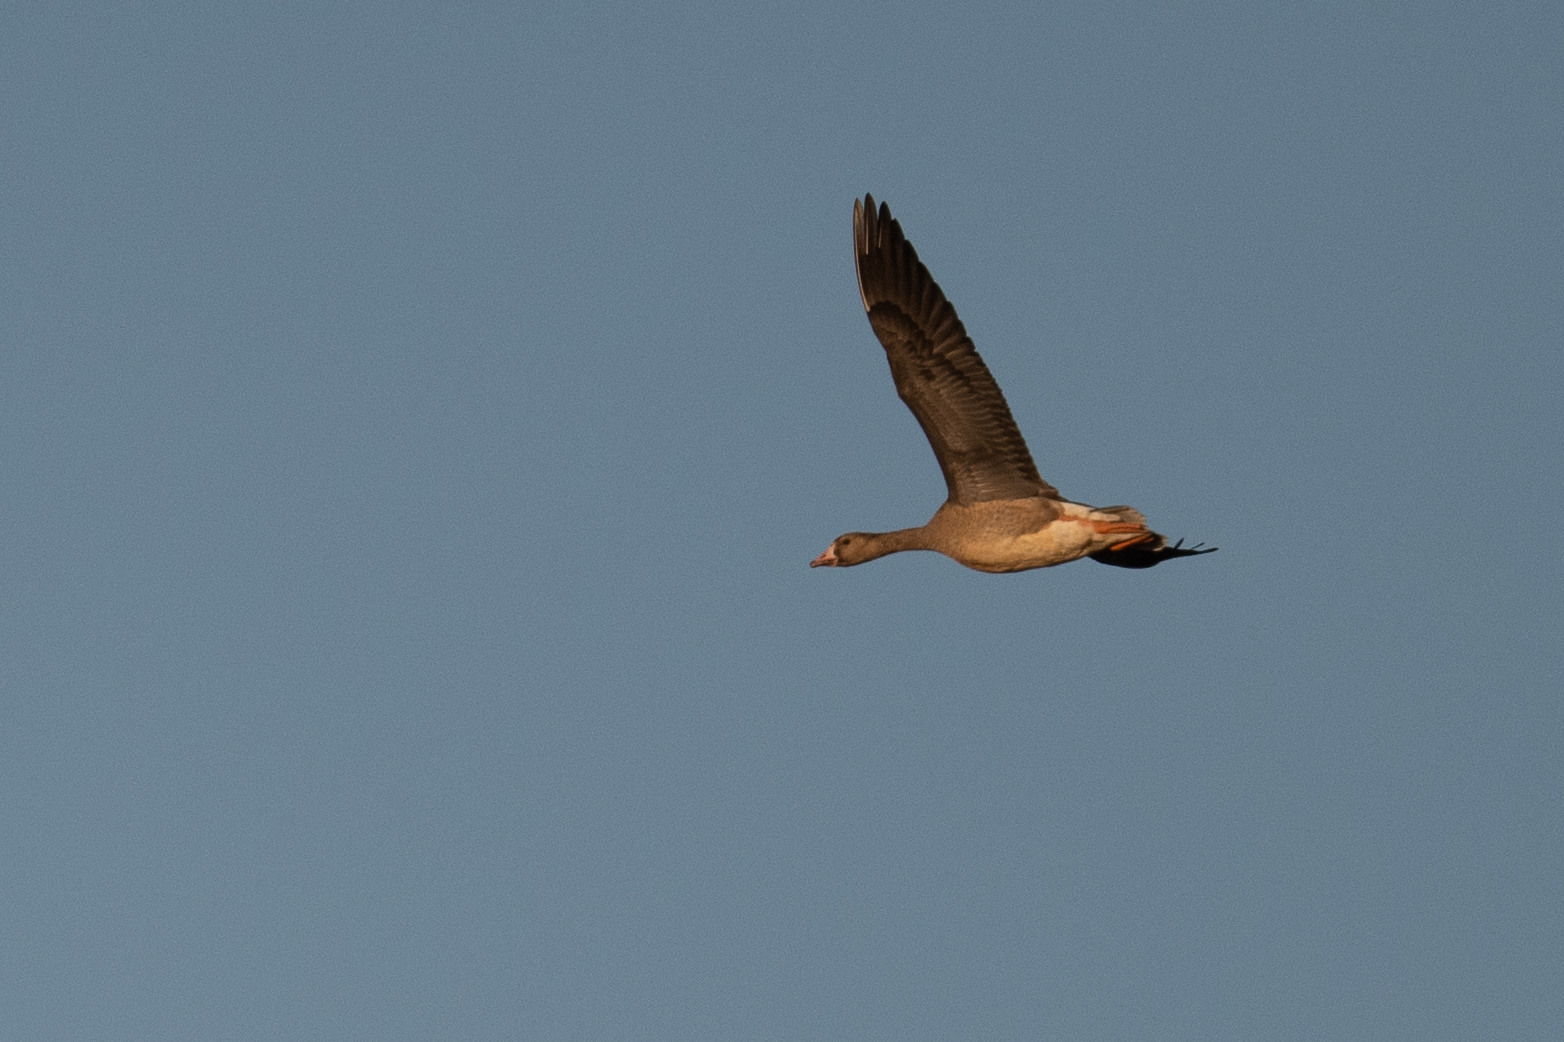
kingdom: Animalia
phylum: Chordata
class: Aves
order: Anseriformes
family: Anatidae
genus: Anser
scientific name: Anser albifrons
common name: Greater white-fronted goose
